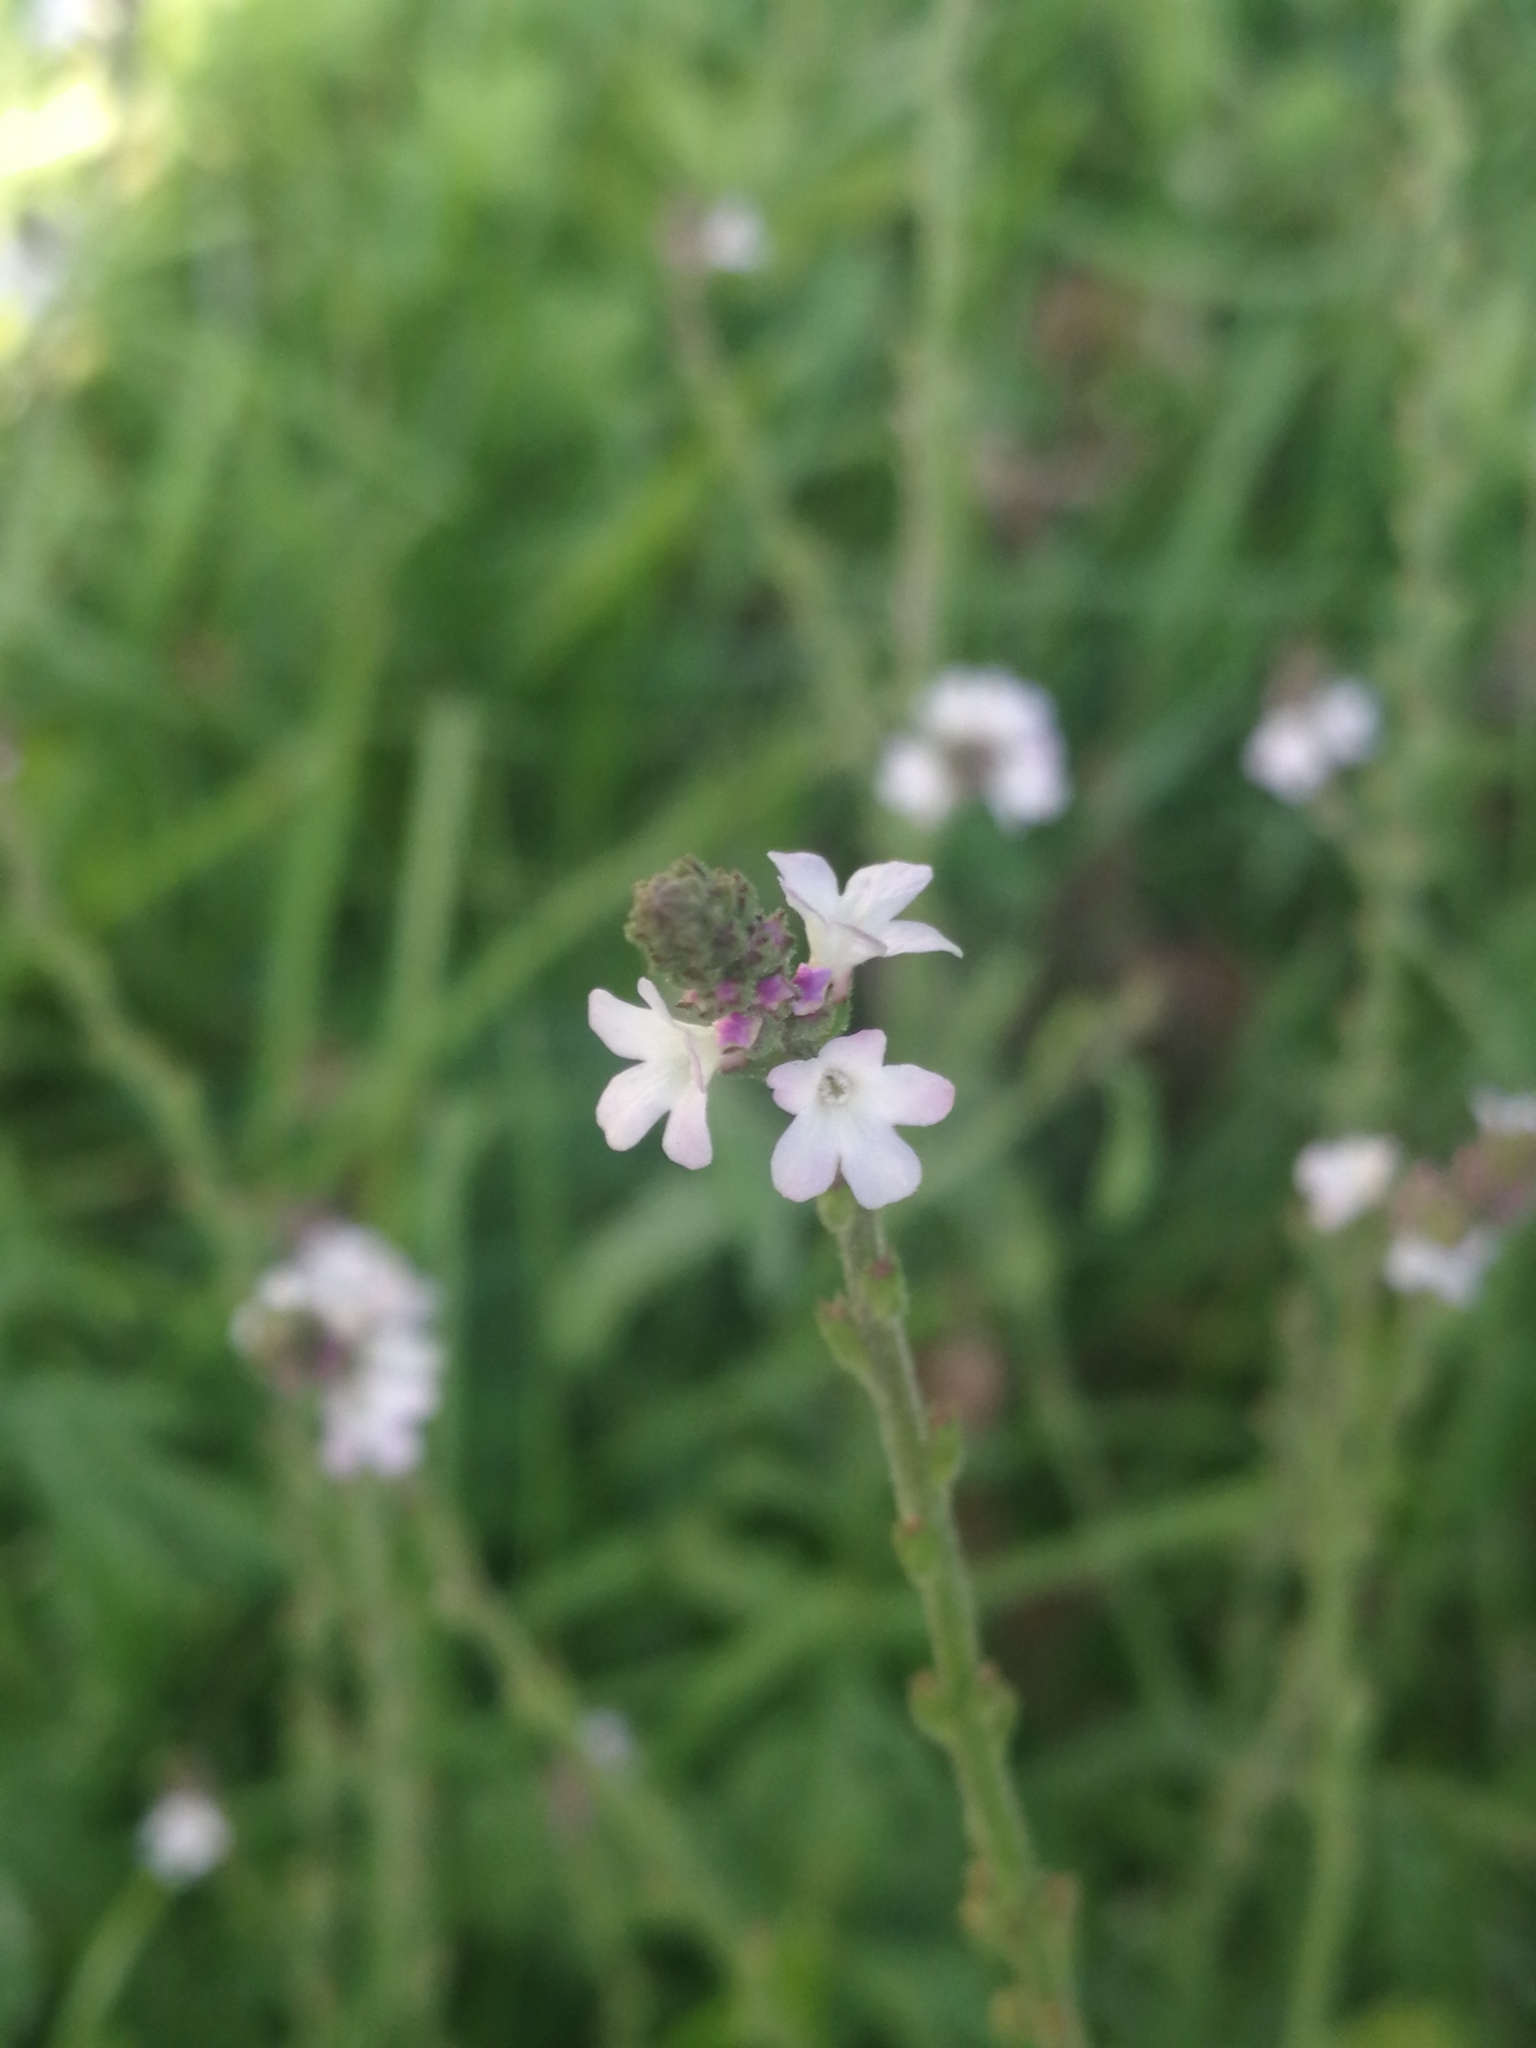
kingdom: Plantae
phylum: Tracheophyta
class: Magnoliopsida
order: Lamiales
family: Verbenaceae
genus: Verbena
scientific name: Verbena officinalis
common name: Vervain
